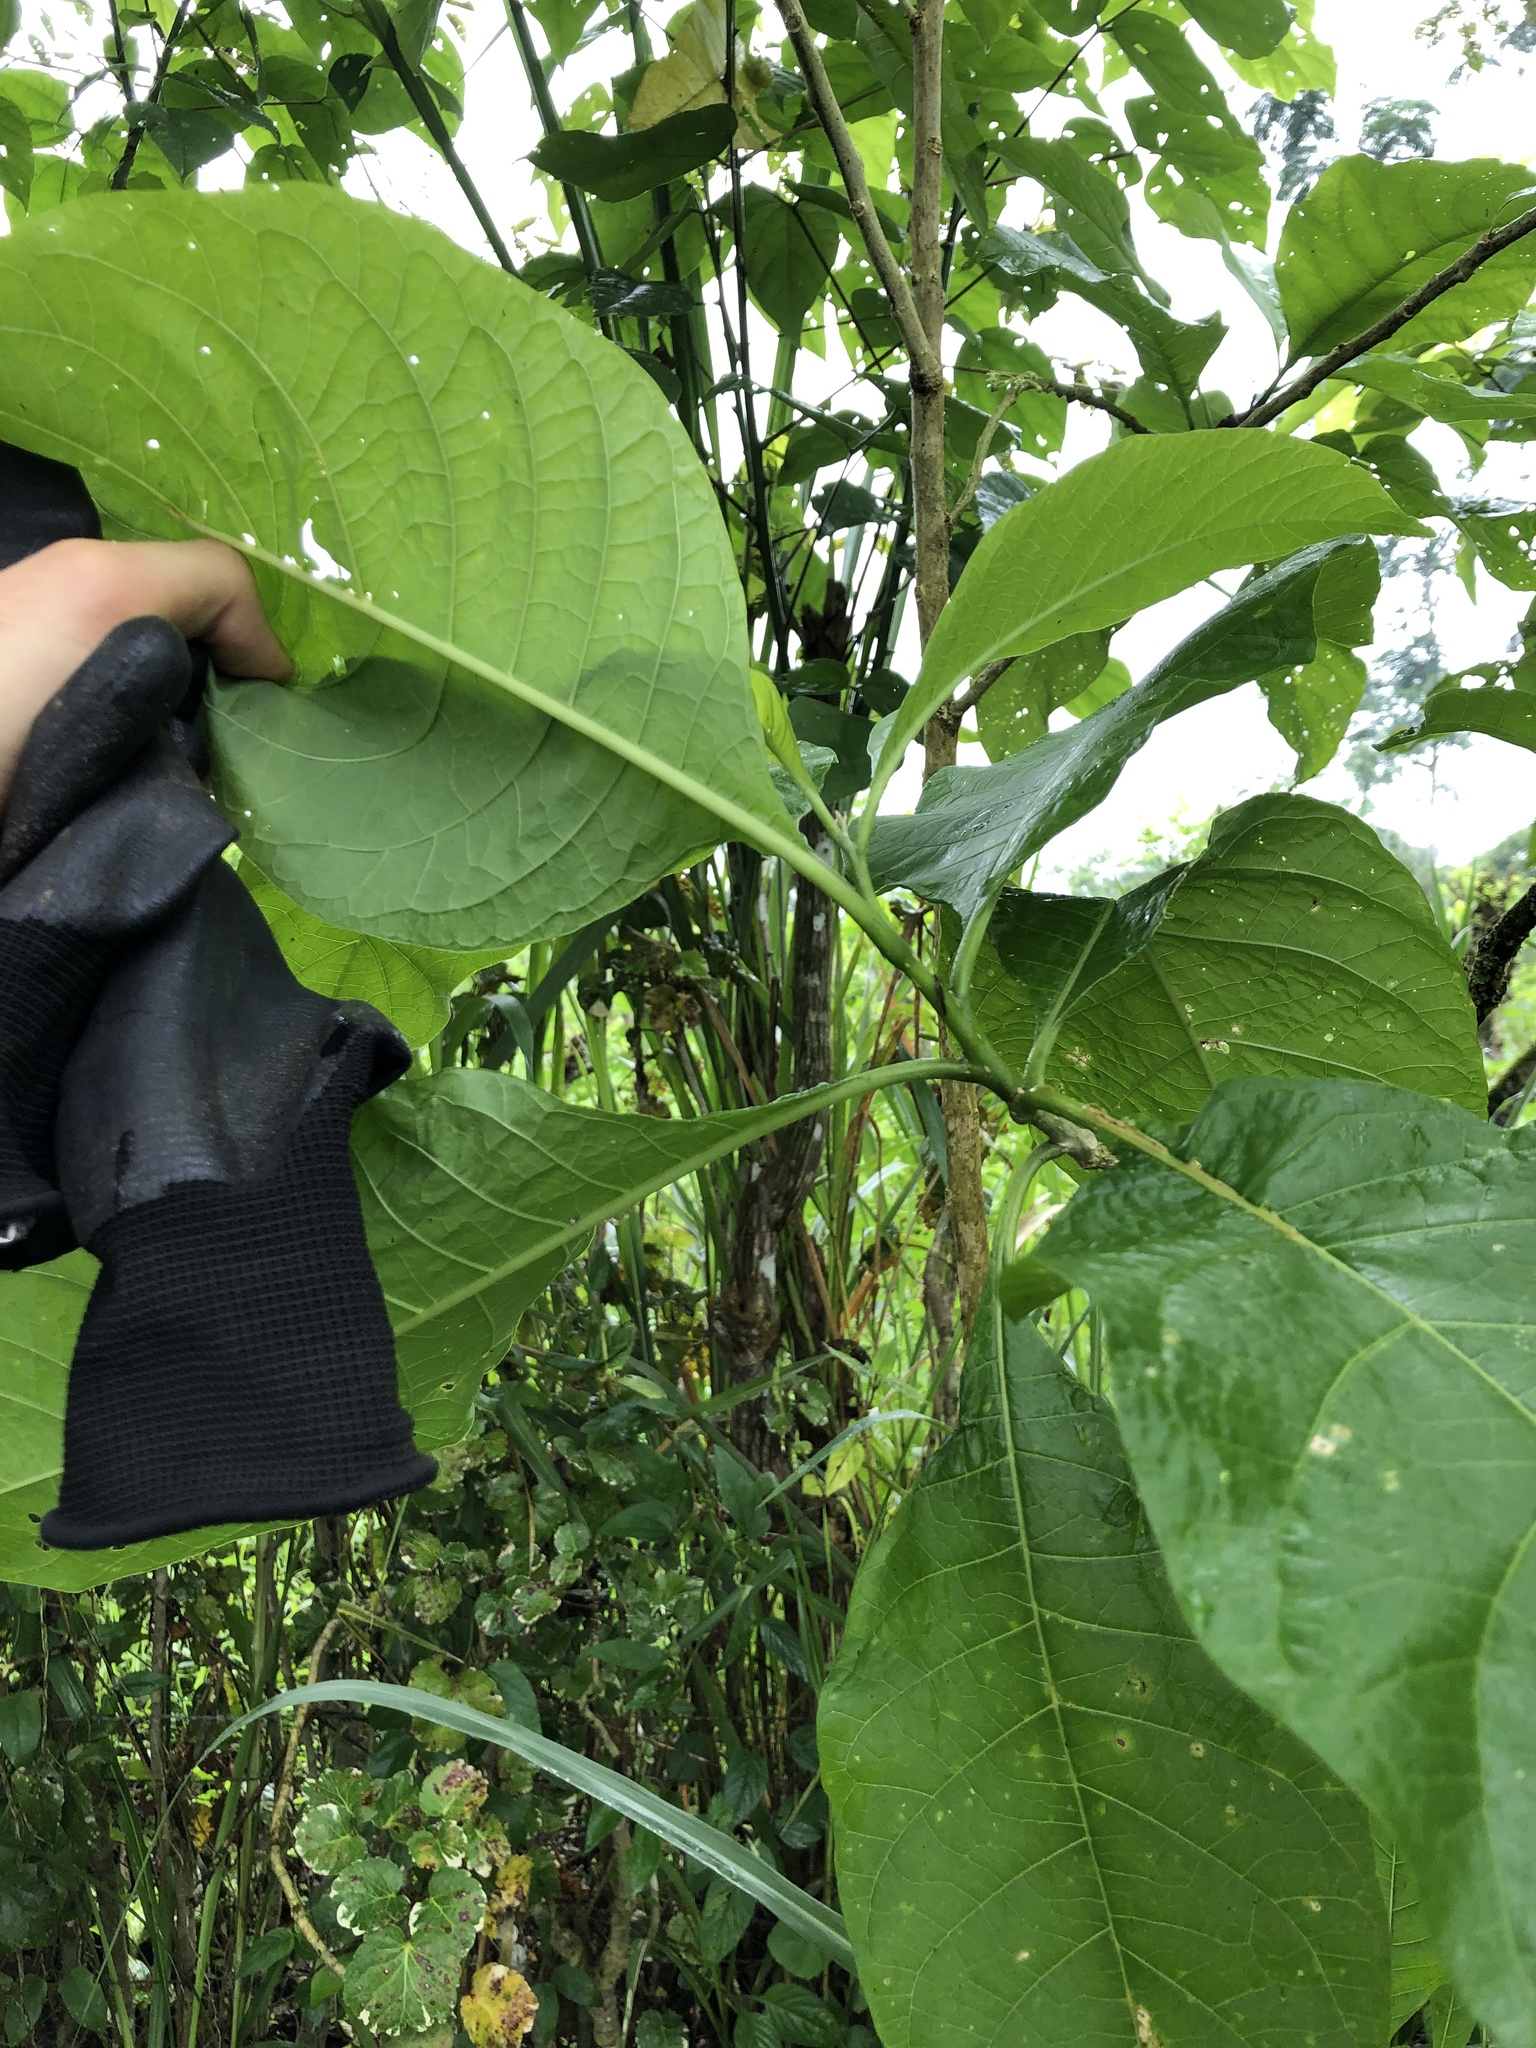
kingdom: Plantae
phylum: Tracheophyta
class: Magnoliopsida
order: Solanales
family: Solanaceae
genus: Iochroma
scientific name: Iochroma arborescens
